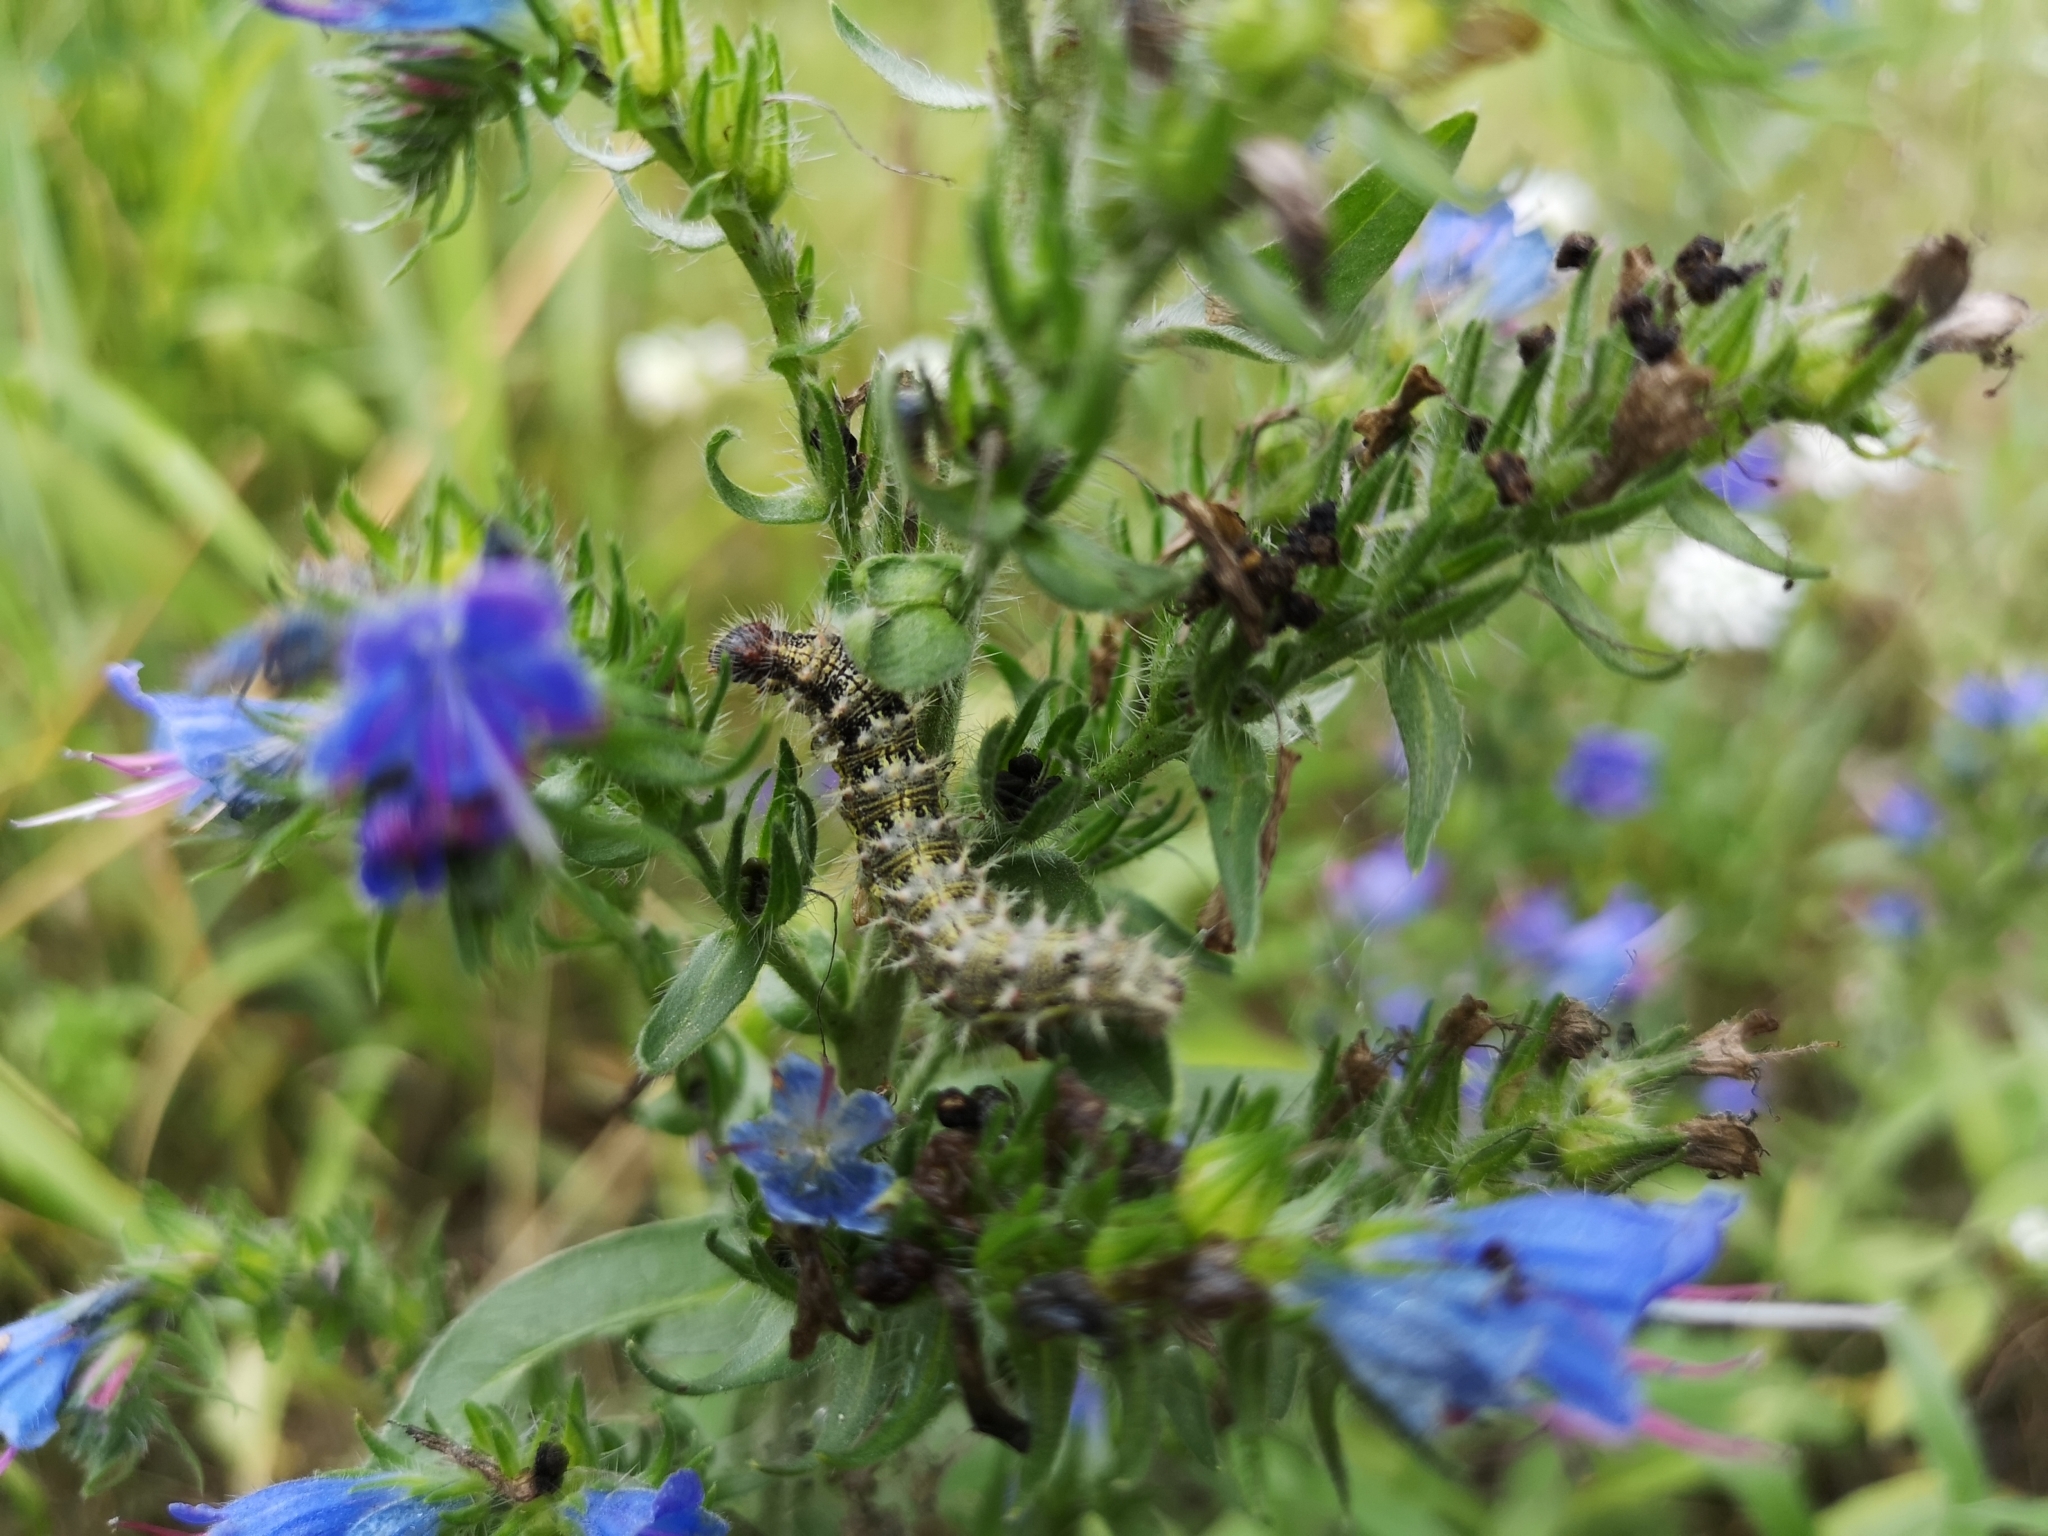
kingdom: Plantae
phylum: Tracheophyta
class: Magnoliopsida
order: Boraginales
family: Boraginaceae
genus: Echium
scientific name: Echium vulgare
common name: Common viper's bugloss
